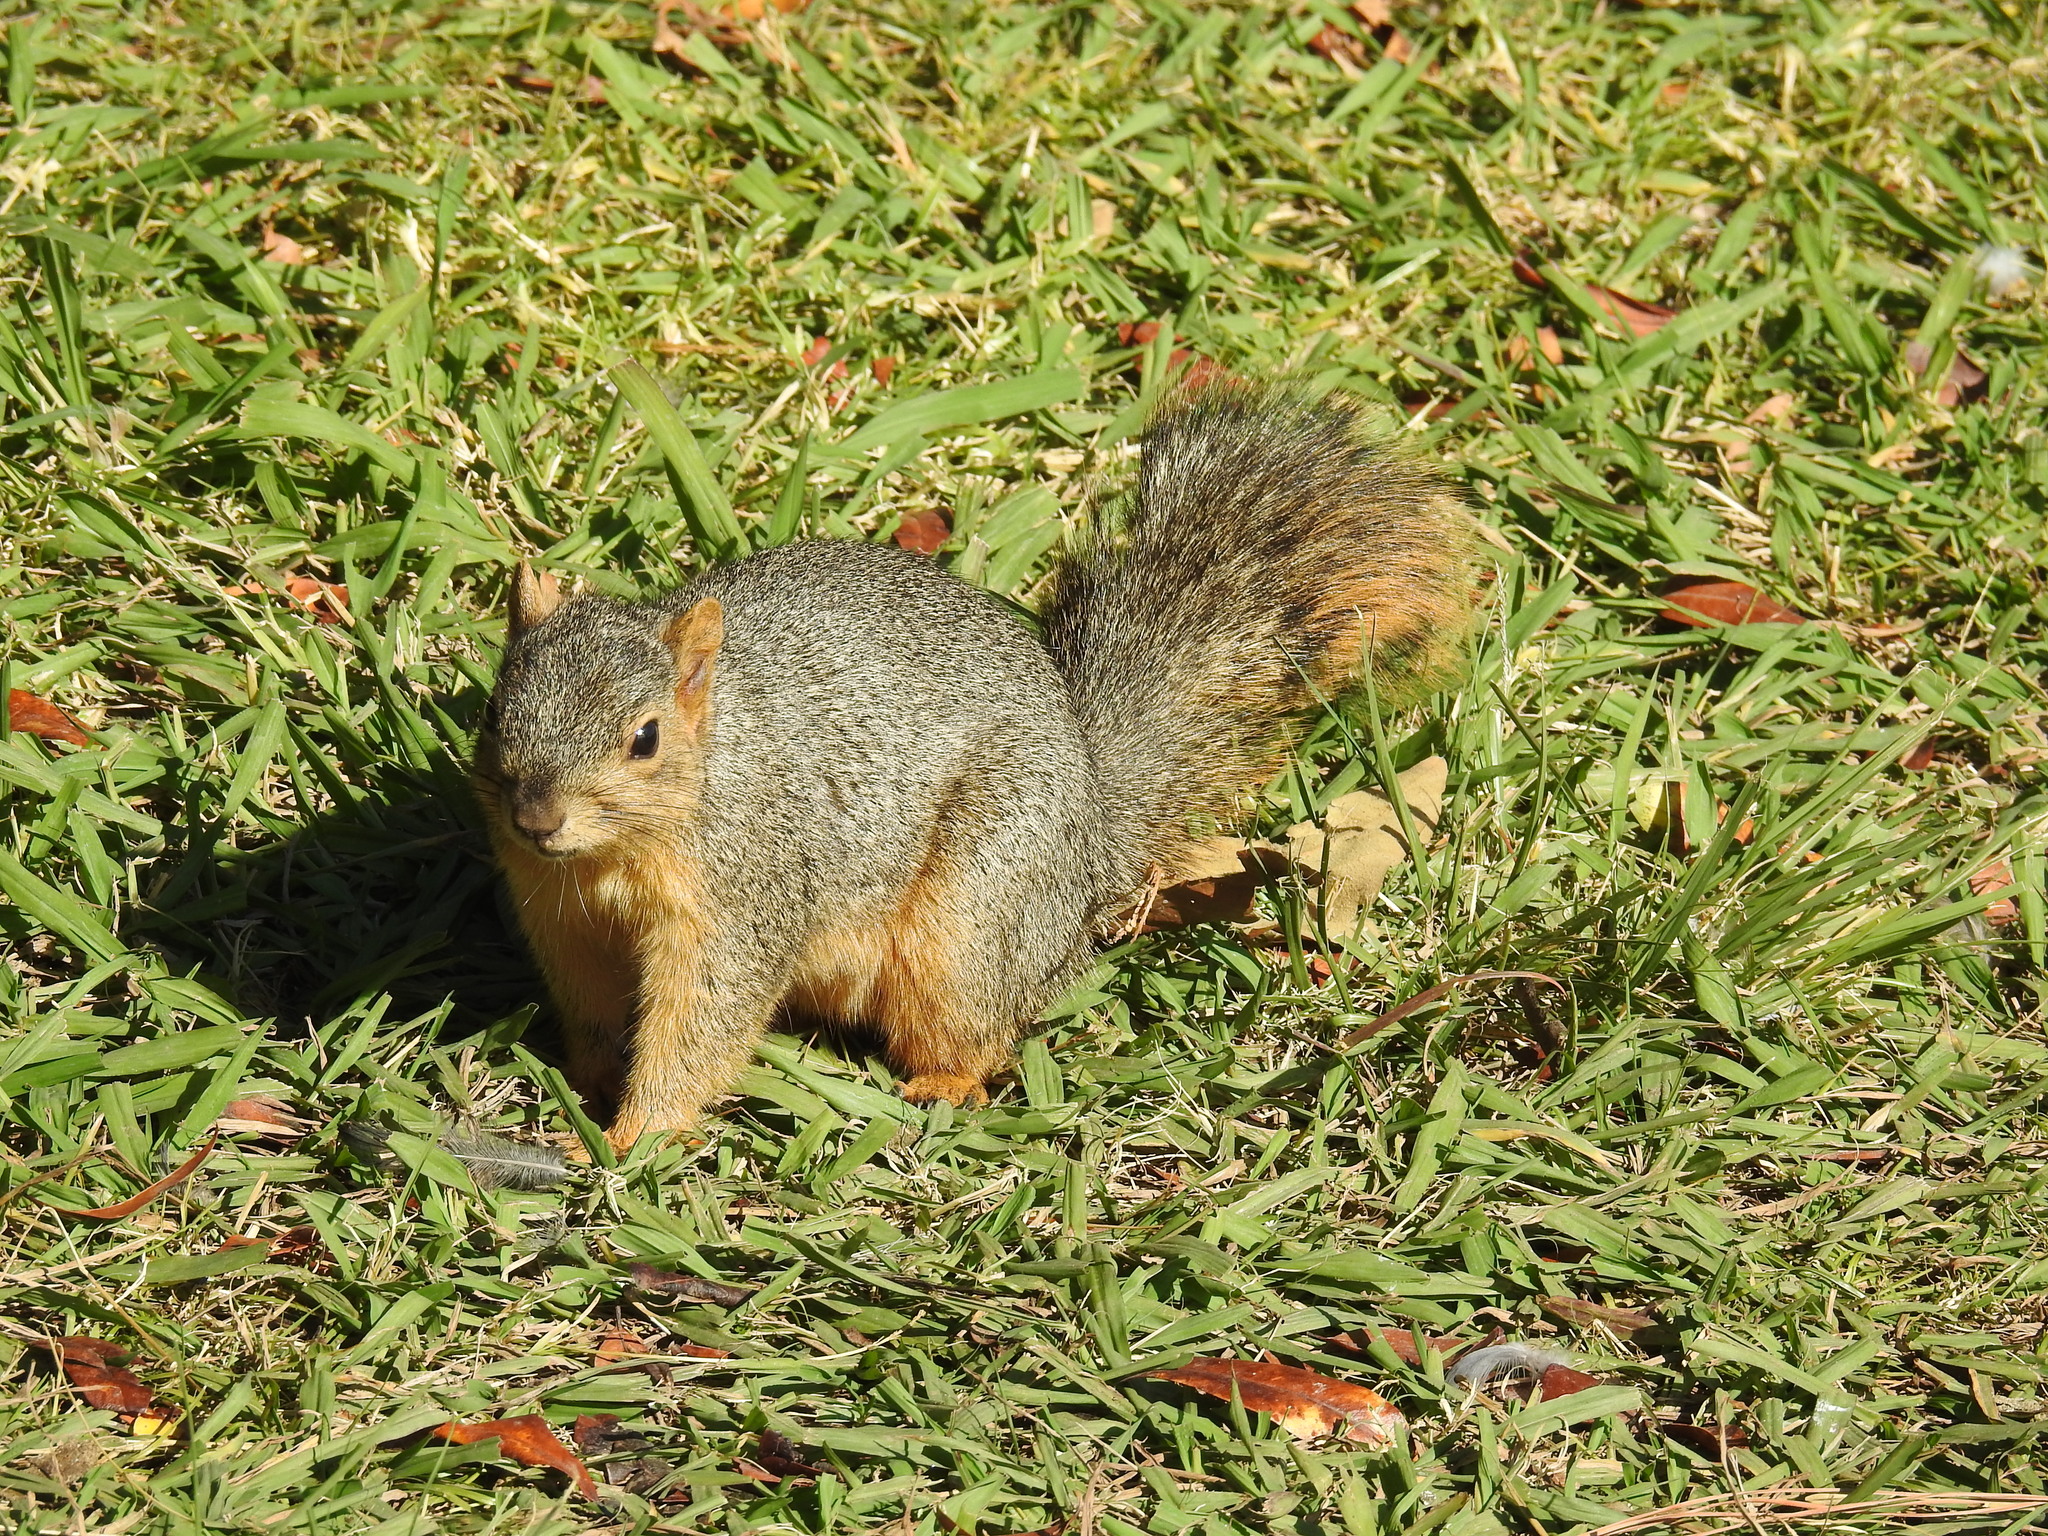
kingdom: Animalia
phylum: Chordata
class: Mammalia
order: Rodentia
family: Sciuridae
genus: Sciurus
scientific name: Sciurus niger
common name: Fox squirrel
